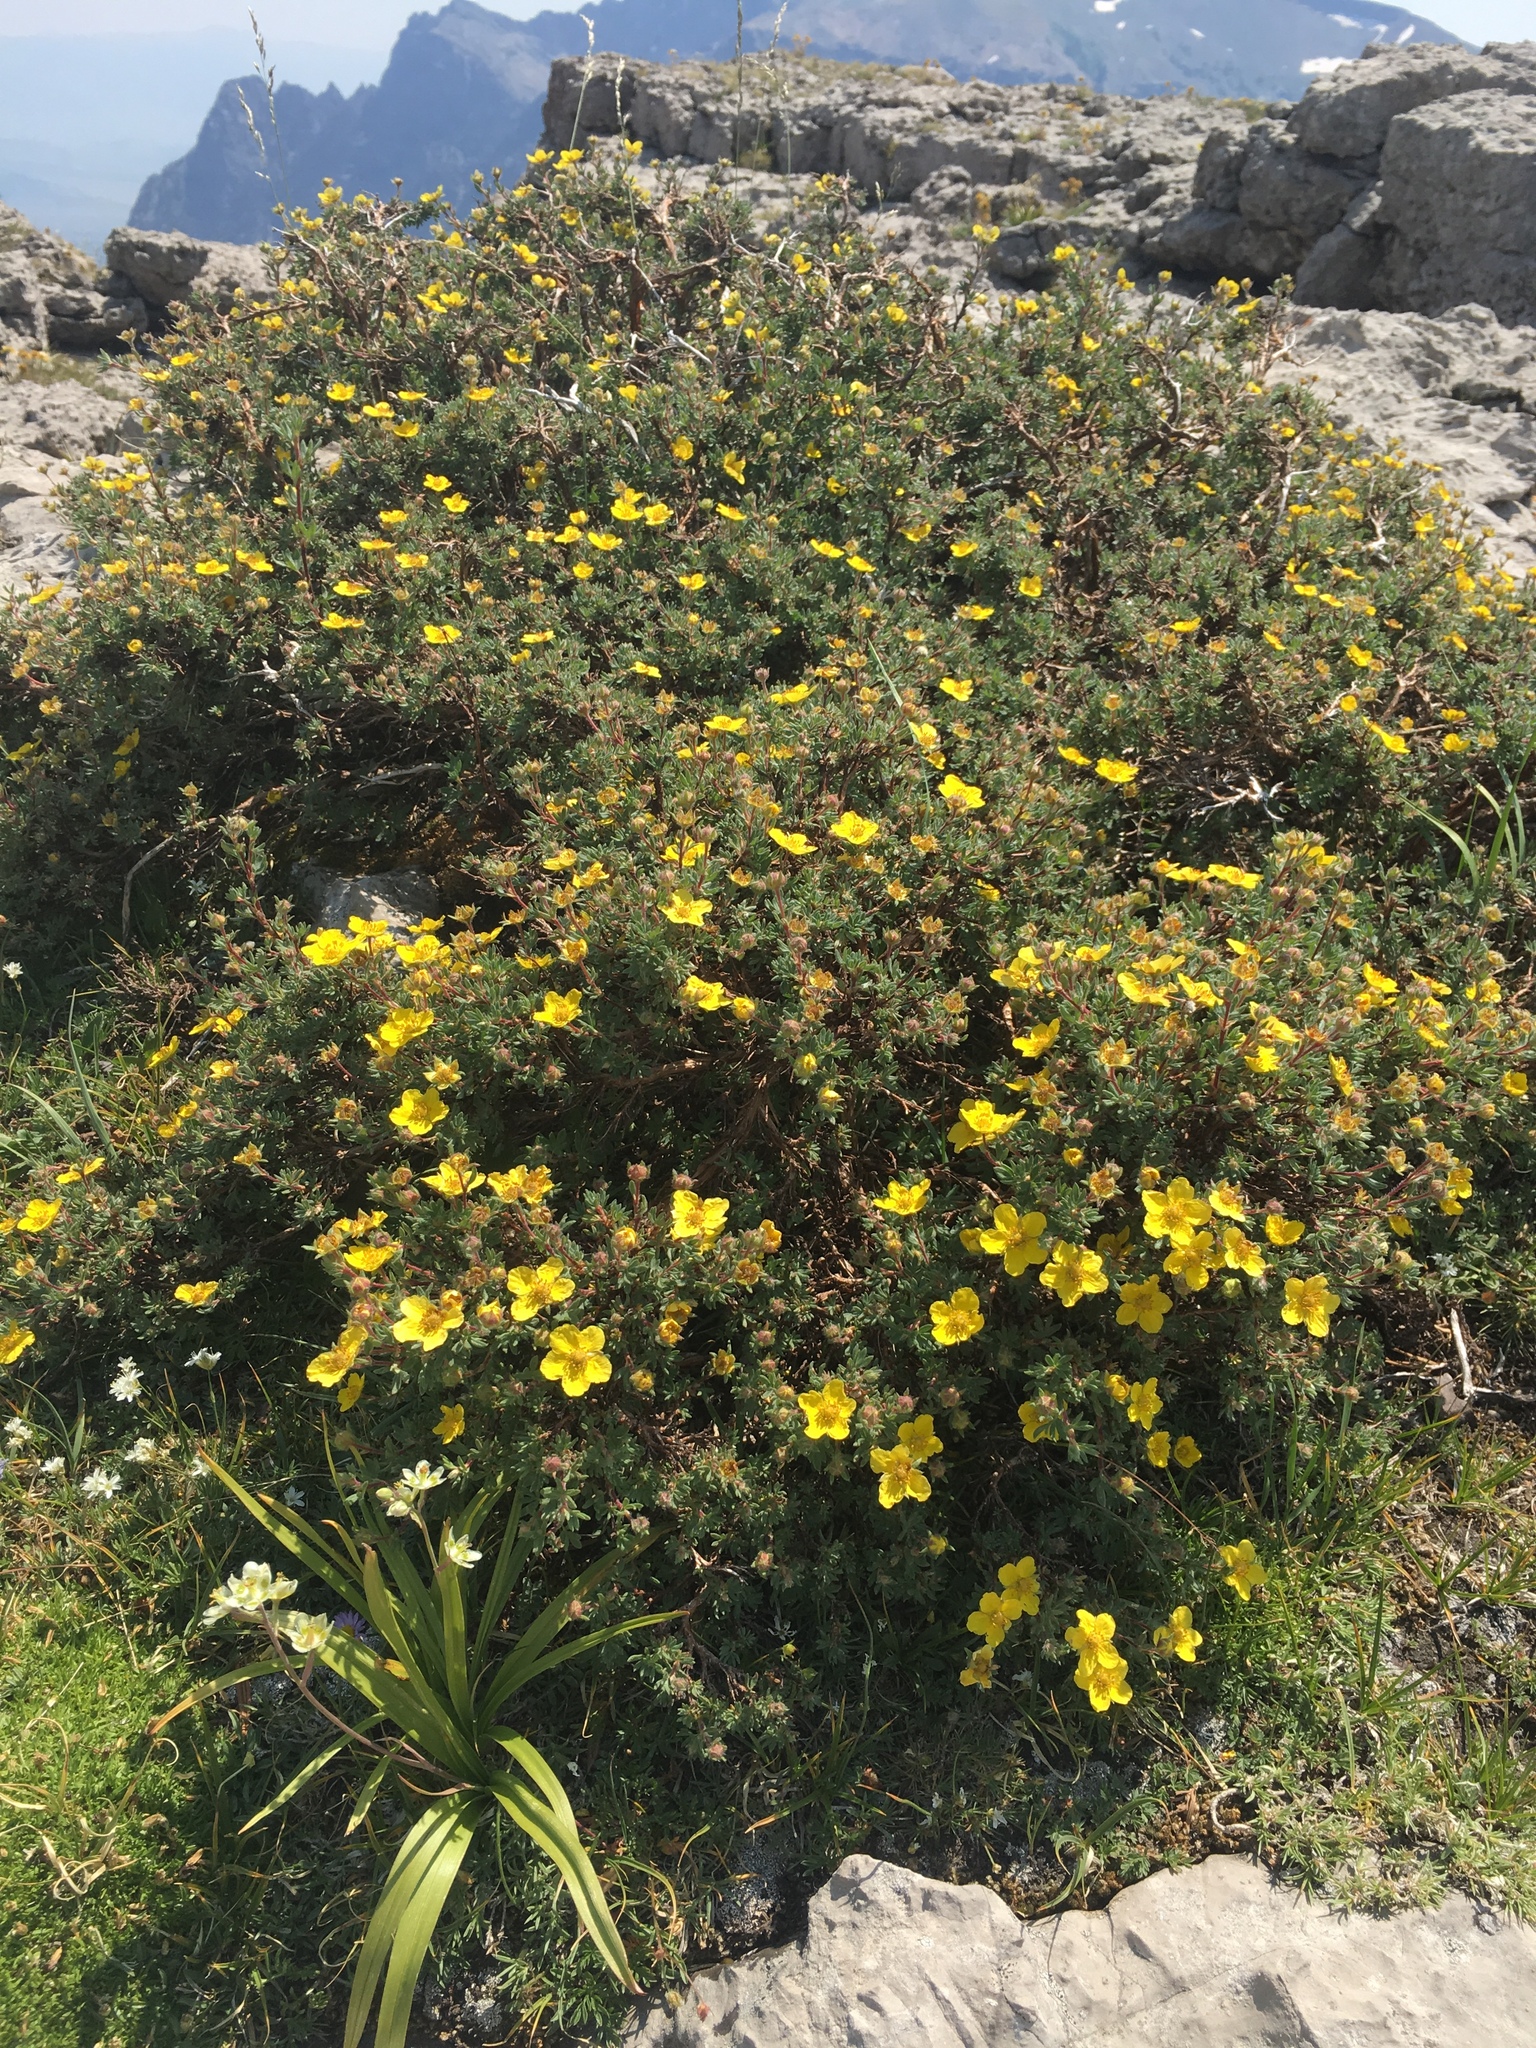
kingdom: Plantae
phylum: Tracheophyta
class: Magnoliopsida
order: Rosales
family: Rosaceae
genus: Dasiphora
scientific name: Dasiphora fruticosa
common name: Shrubby cinquefoil
